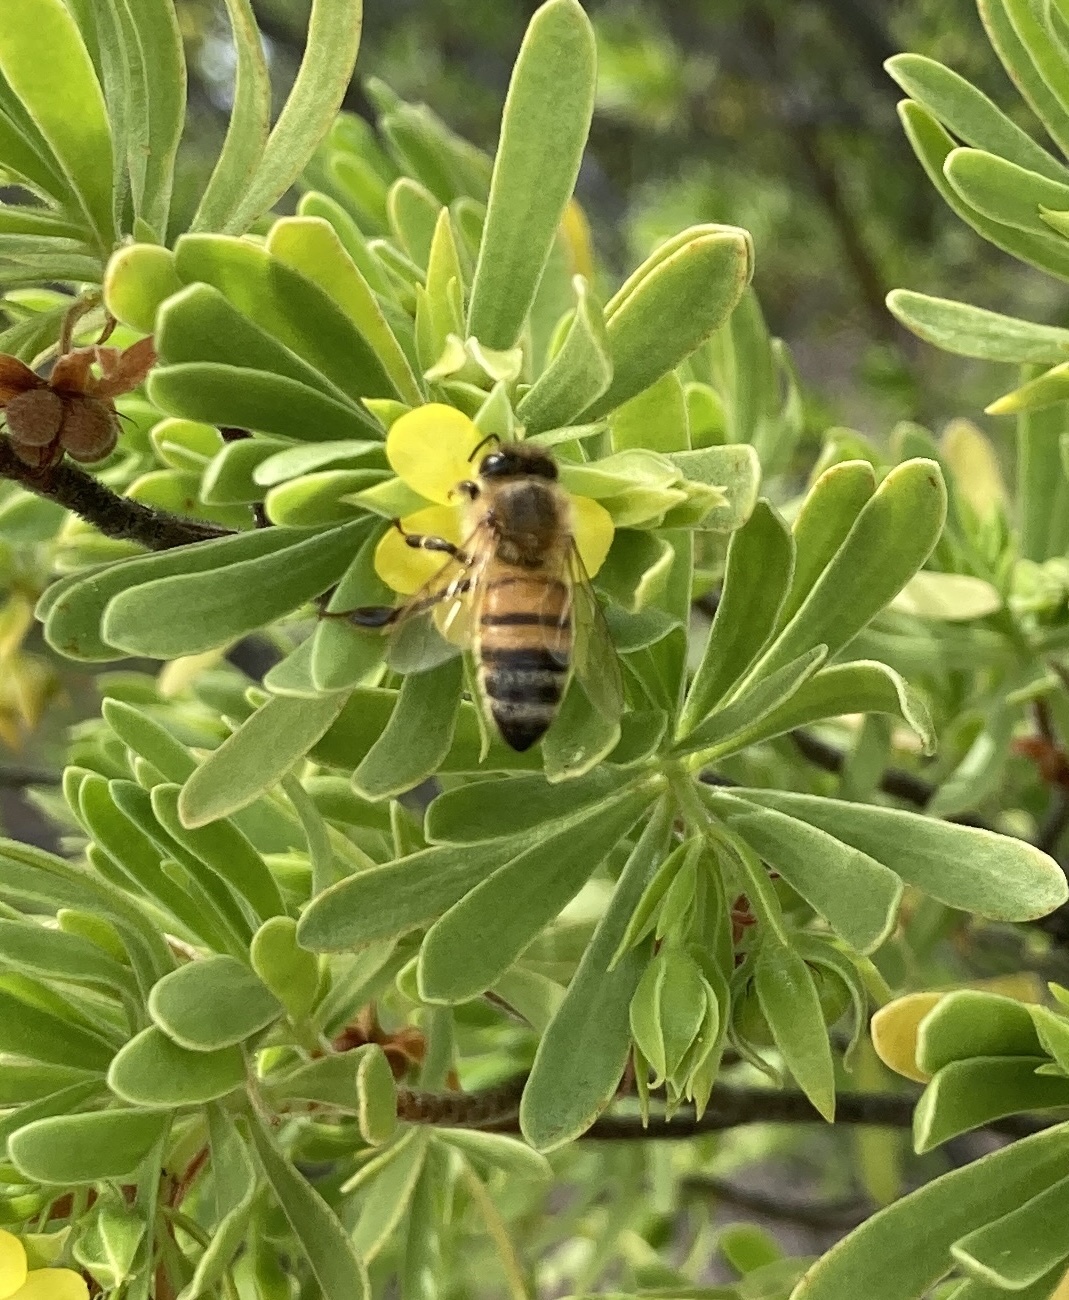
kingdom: Animalia
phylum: Arthropoda
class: Insecta
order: Hymenoptera
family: Apidae
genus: Apis
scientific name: Apis mellifera
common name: Honey bee
